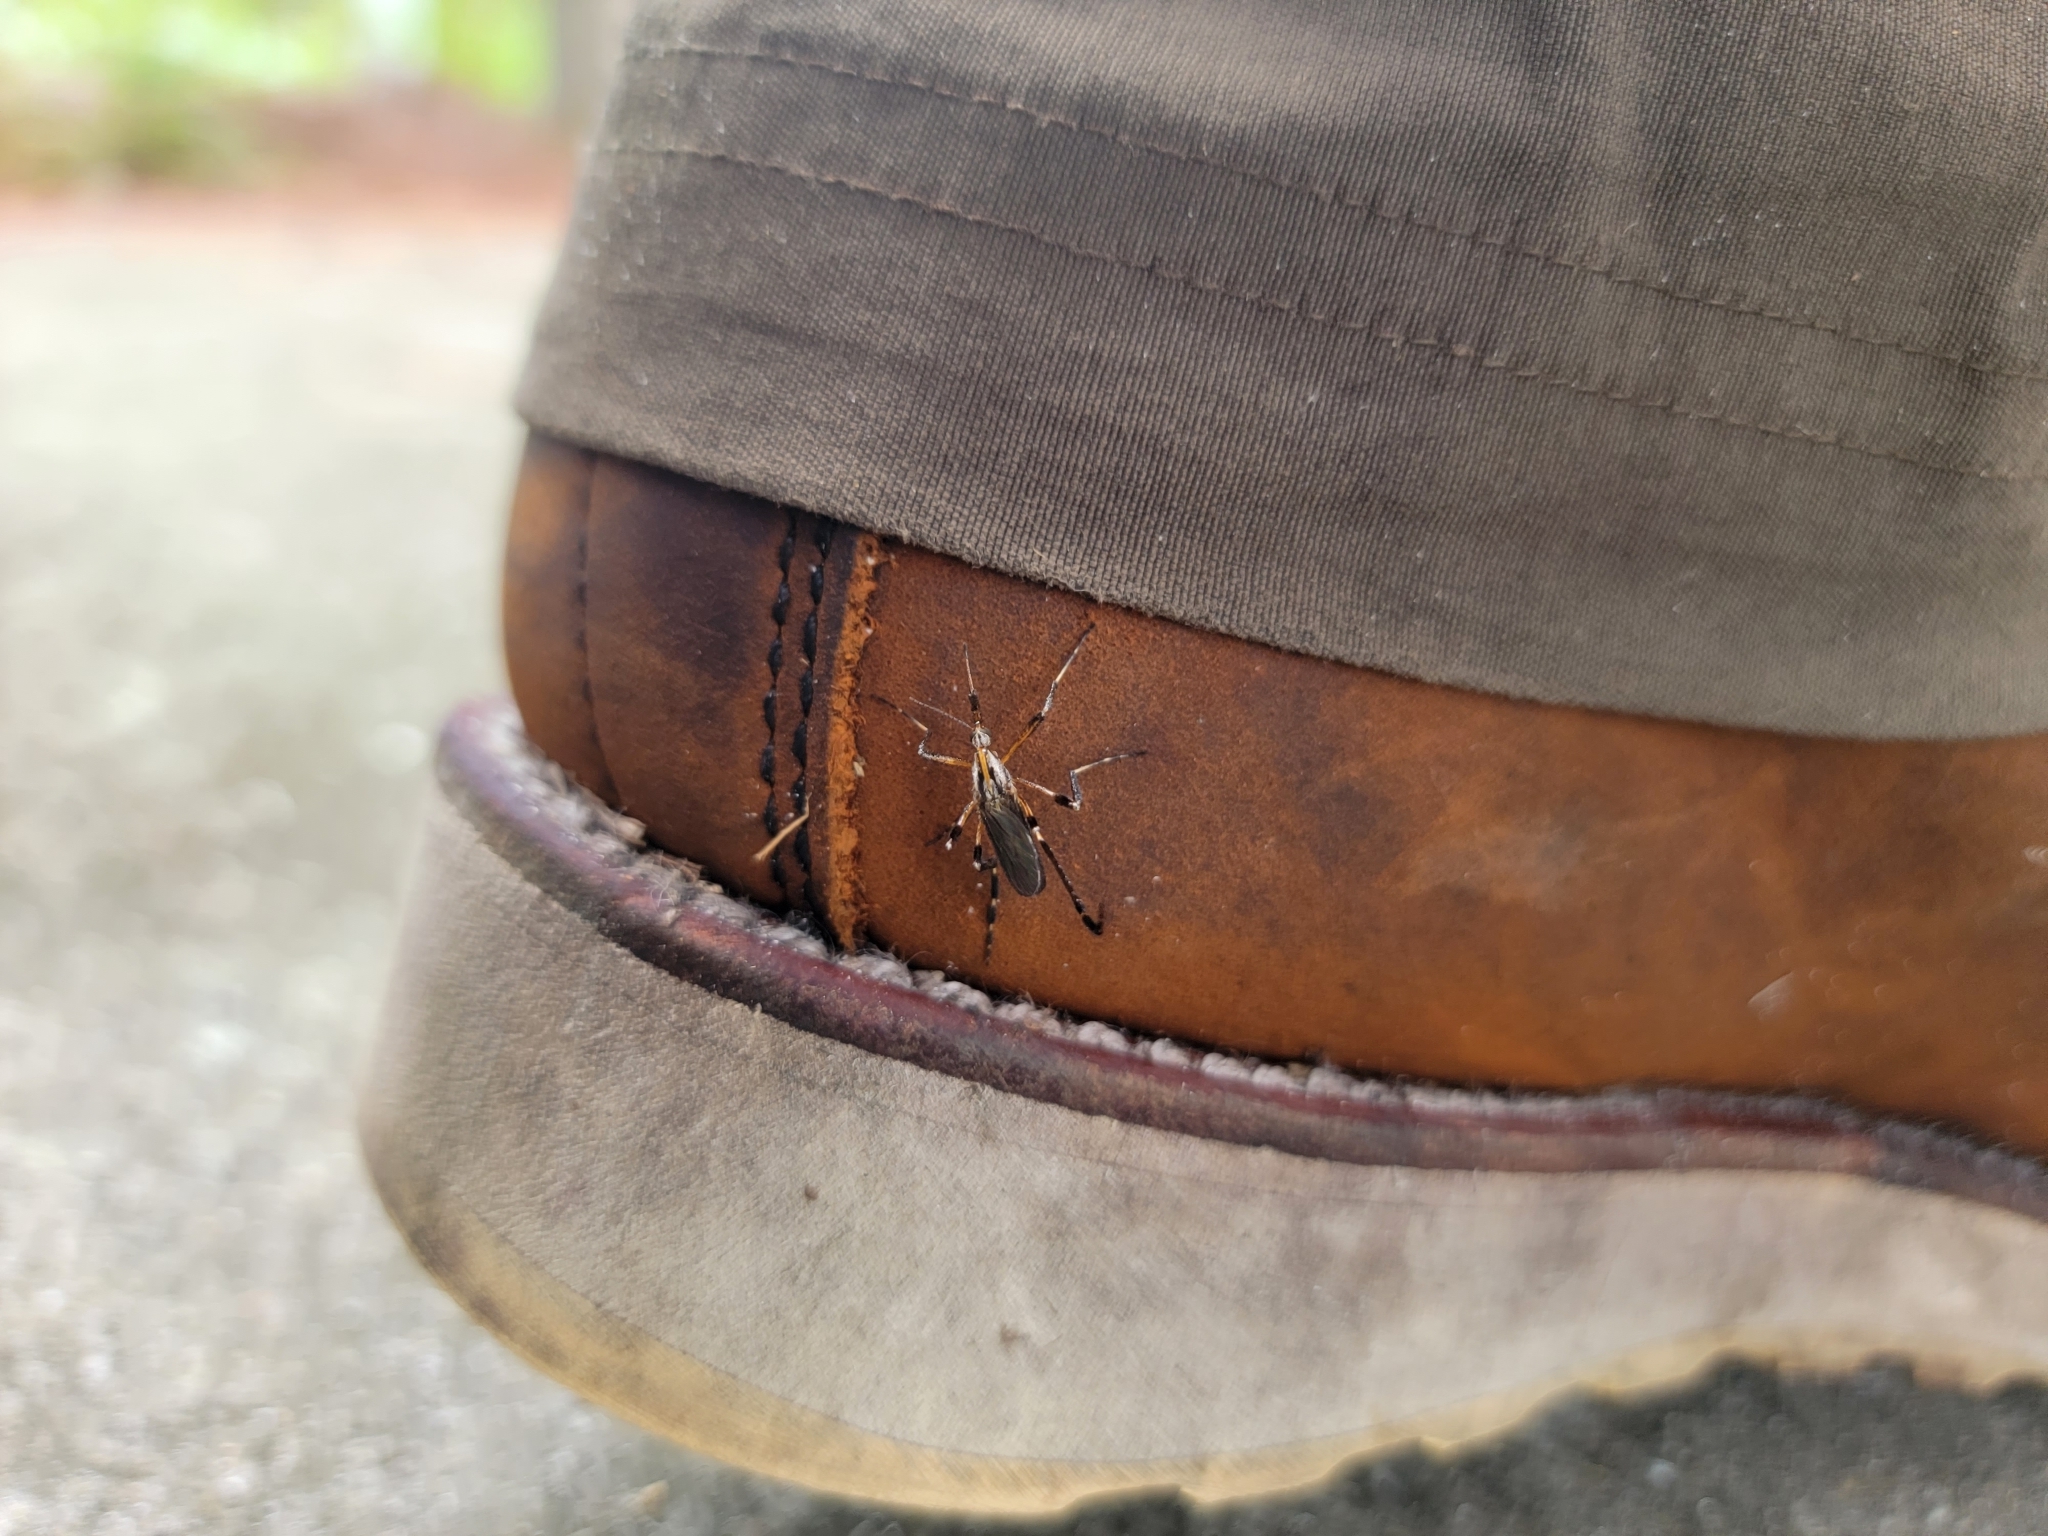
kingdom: Animalia
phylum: Arthropoda
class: Insecta
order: Diptera
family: Culicidae
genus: Psorophora
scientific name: Psorophora ciliata
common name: Gallinipper
